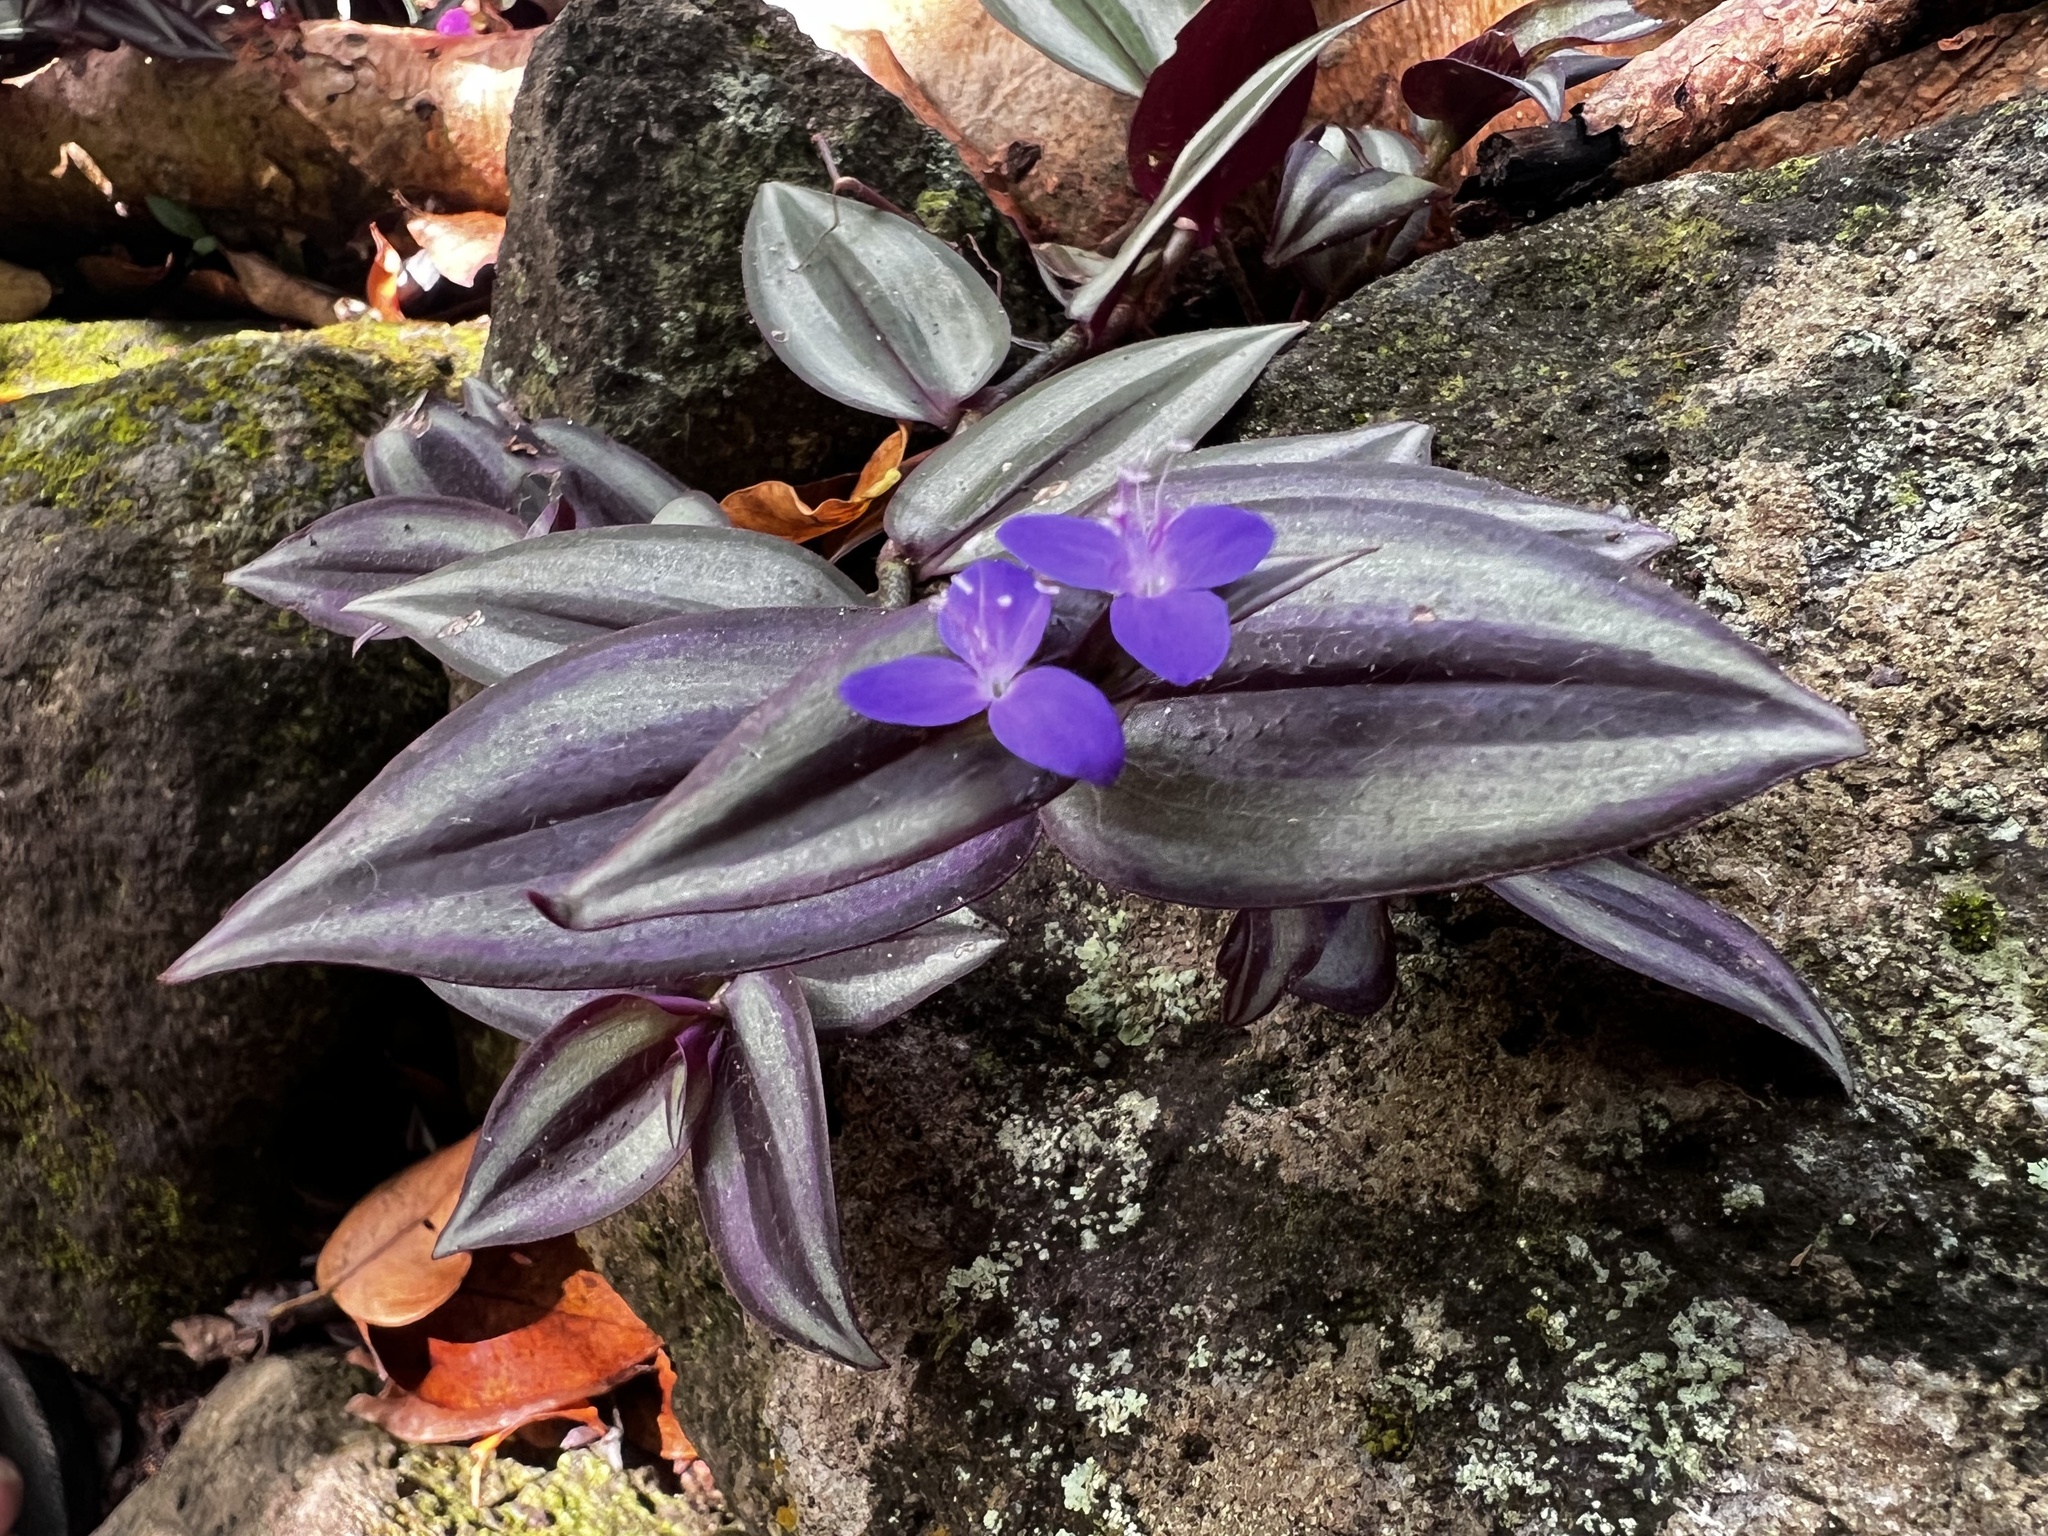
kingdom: Plantae
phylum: Tracheophyta
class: Liliopsida
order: Commelinales
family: Commelinaceae
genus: Tradescantia
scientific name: Tradescantia zebrina
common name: Inchplant
